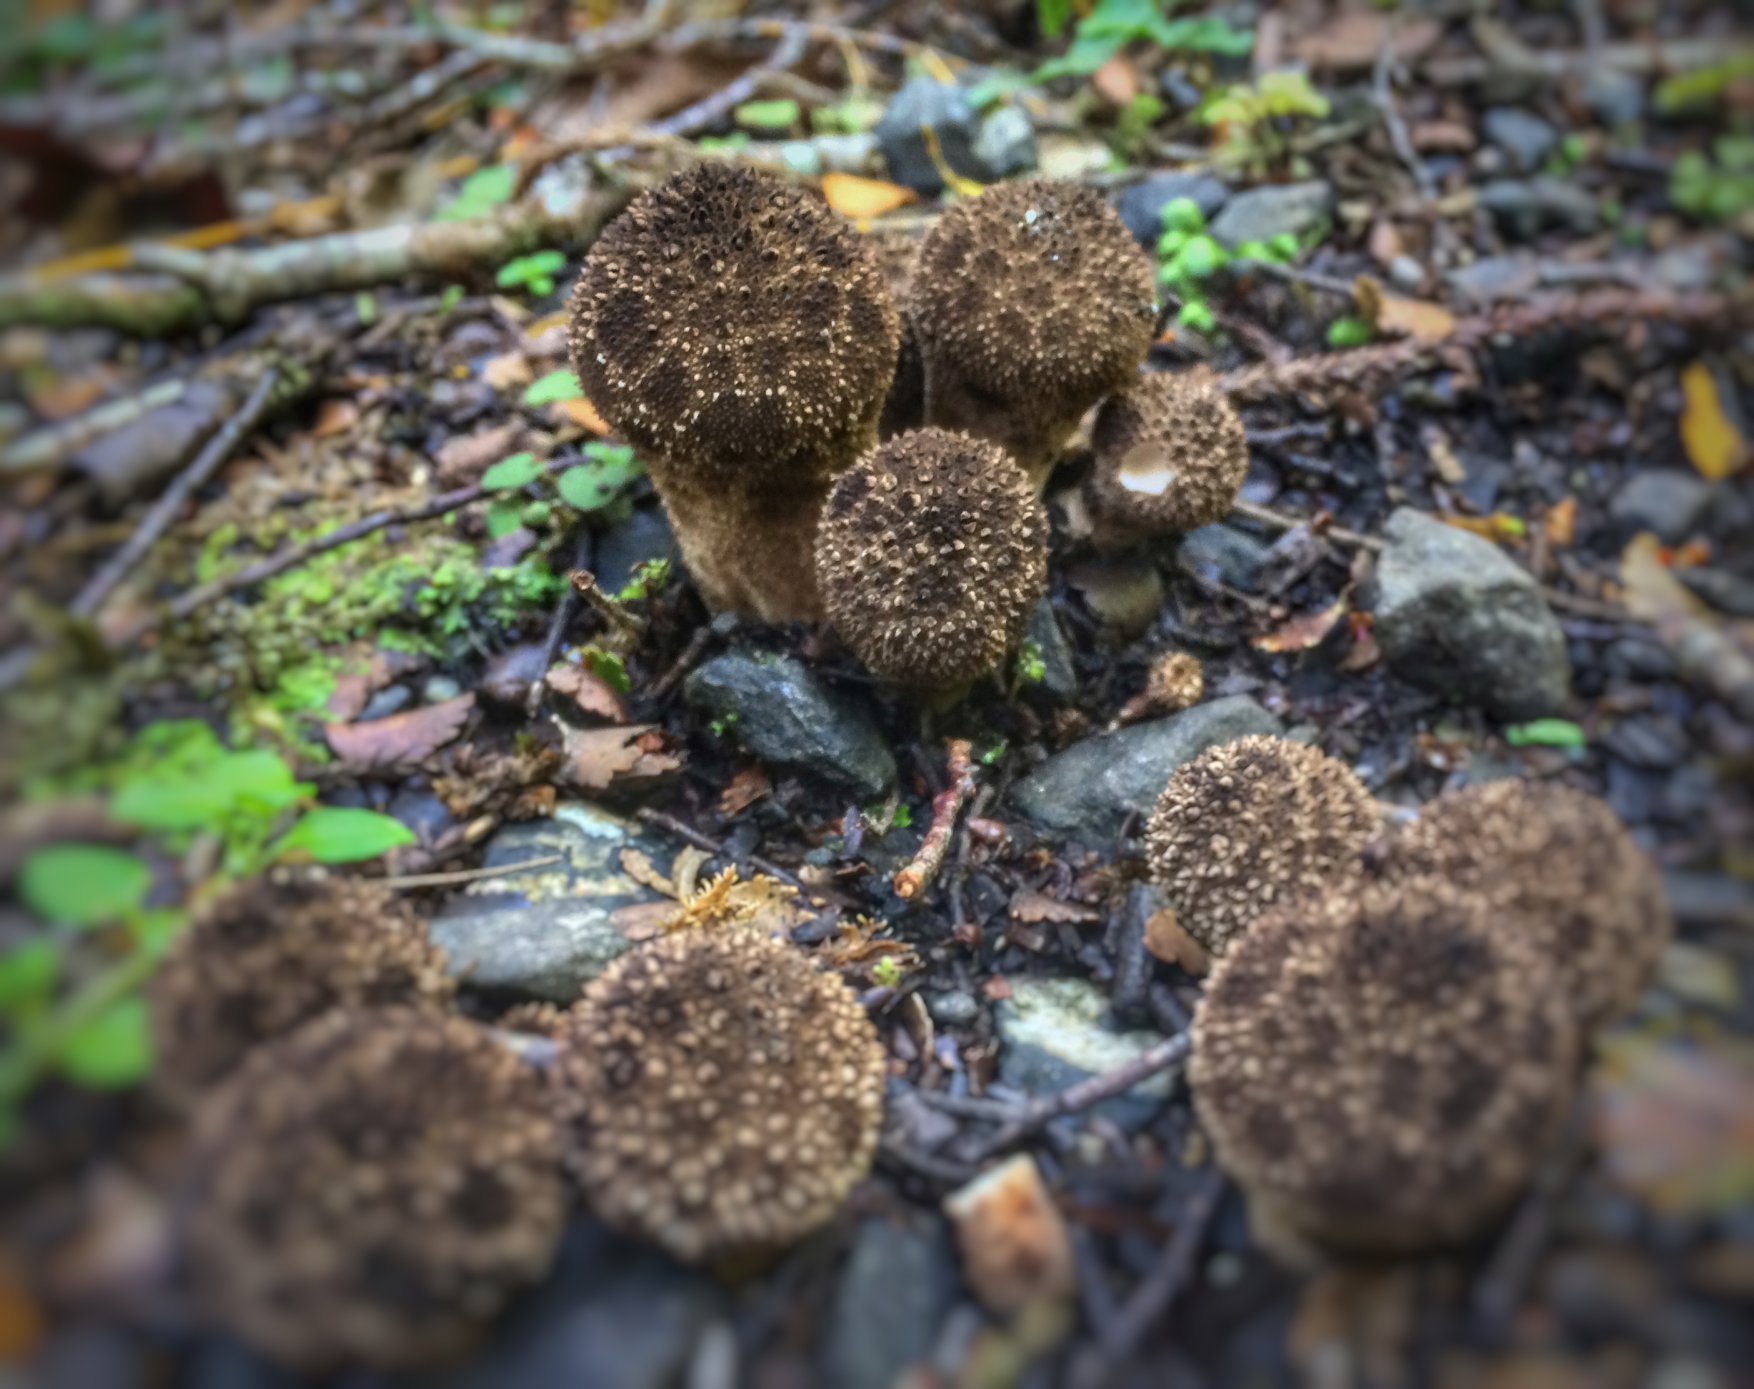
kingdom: Fungi
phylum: Basidiomycota
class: Agaricomycetes
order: Agaricales
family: Lycoperdaceae
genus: Lycoperdon
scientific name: Lycoperdon perlatum
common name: Common puffball
